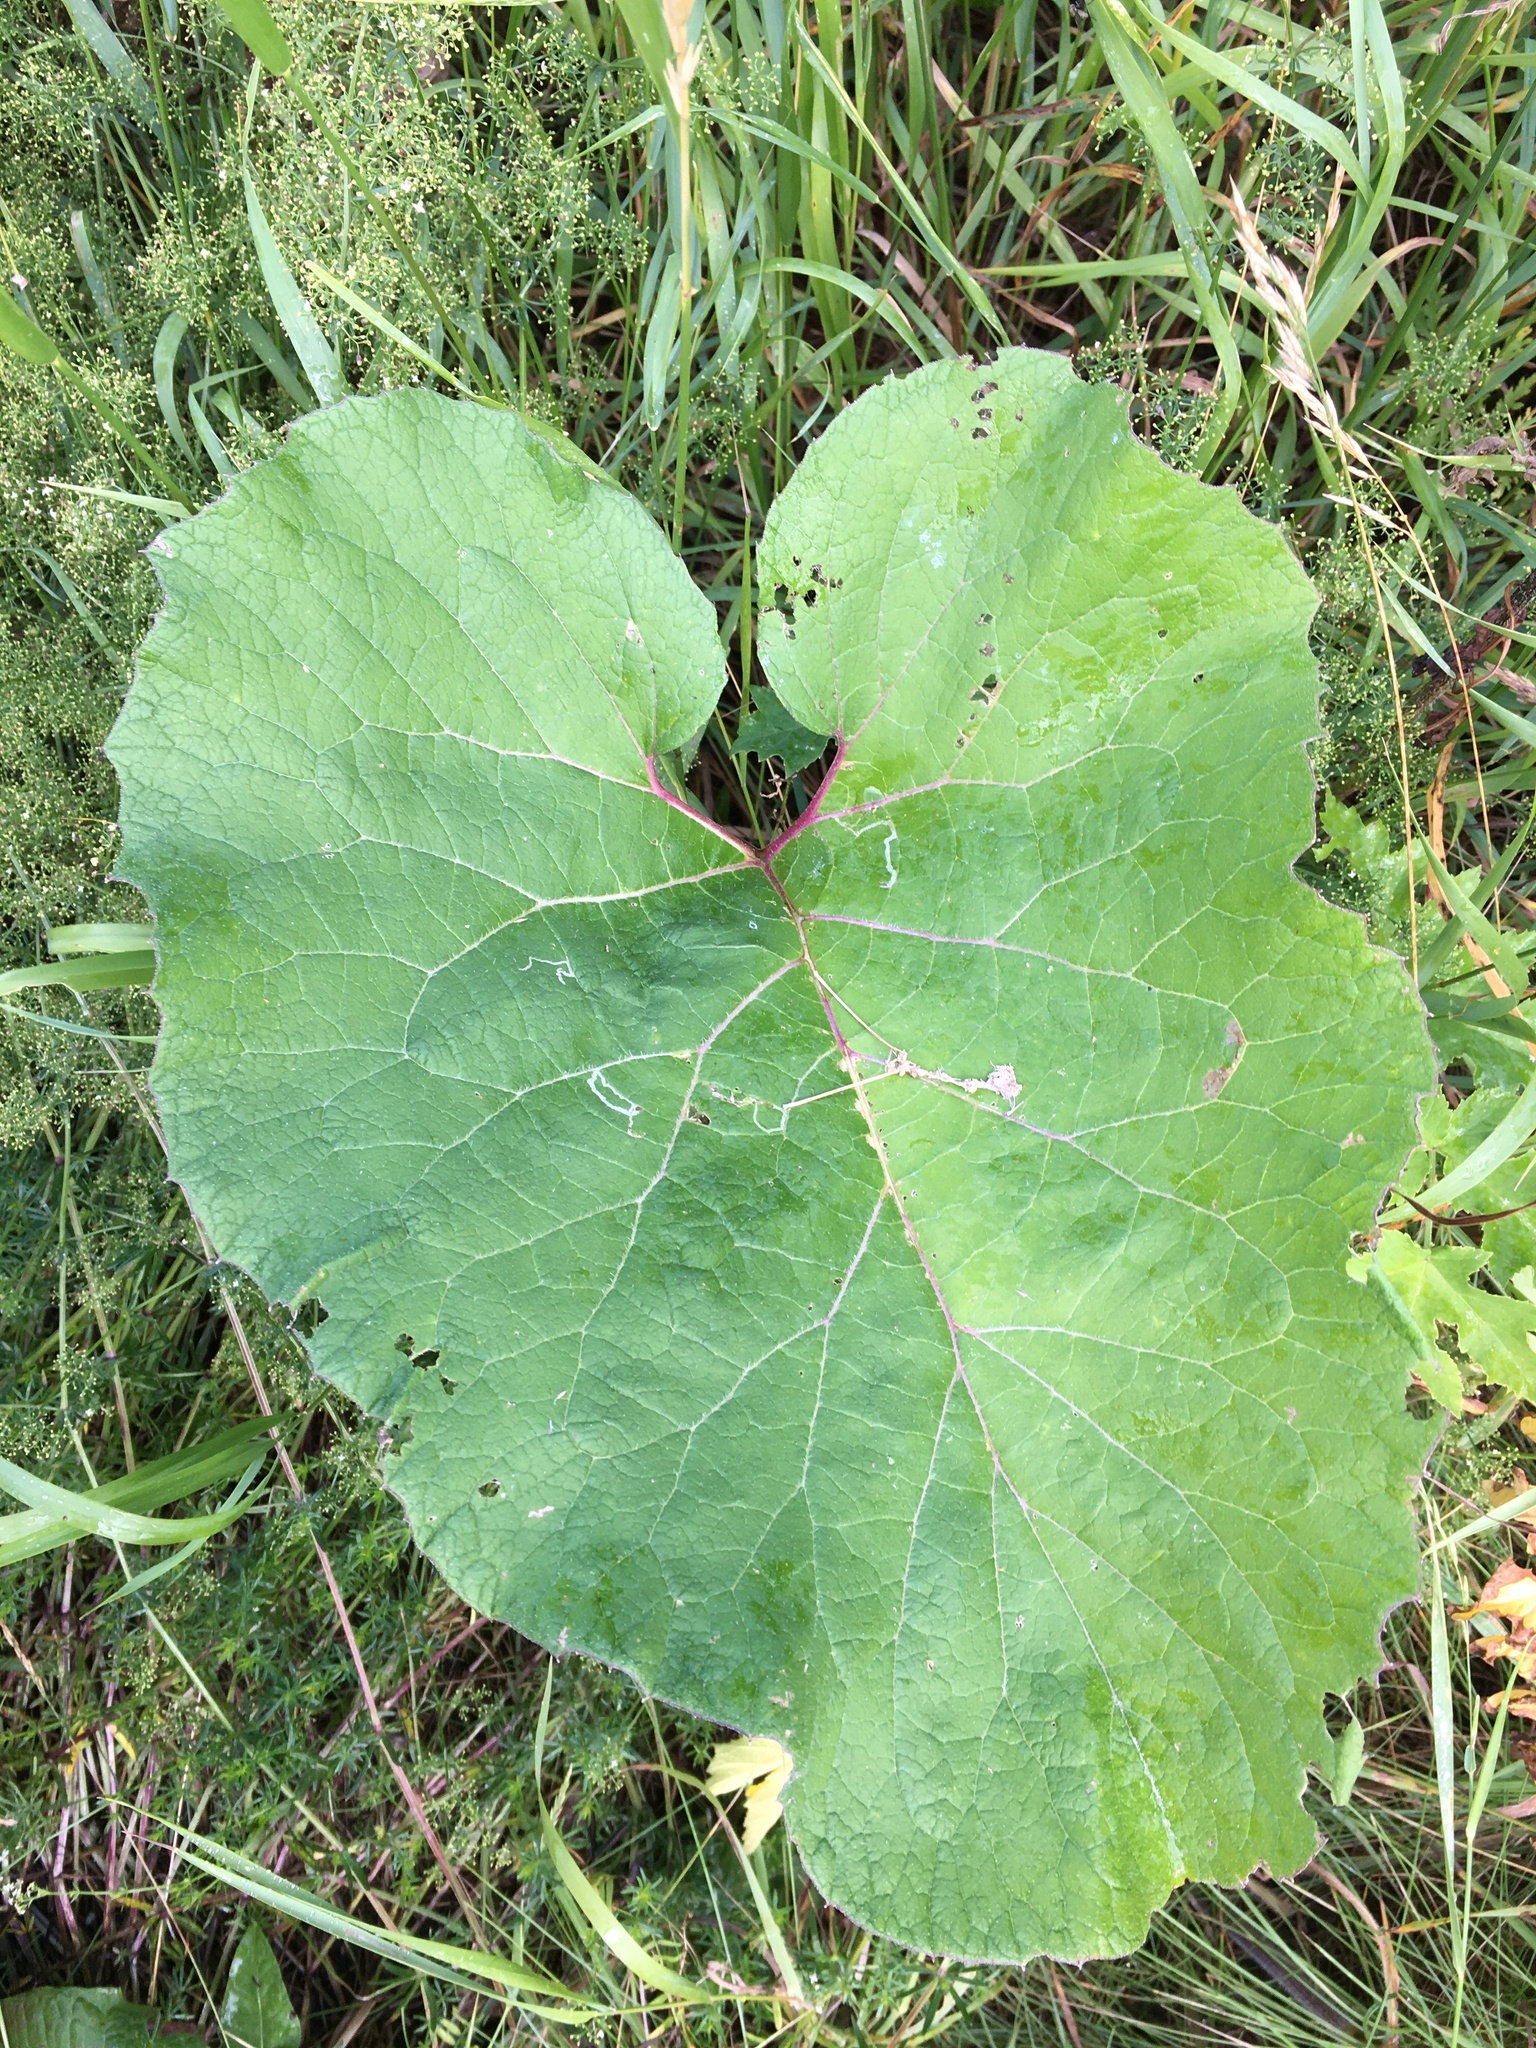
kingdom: Plantae
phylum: Tracheophyta
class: Magnoliopsida
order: Asterales
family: Asteraceae
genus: Arctium
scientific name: Arctium
